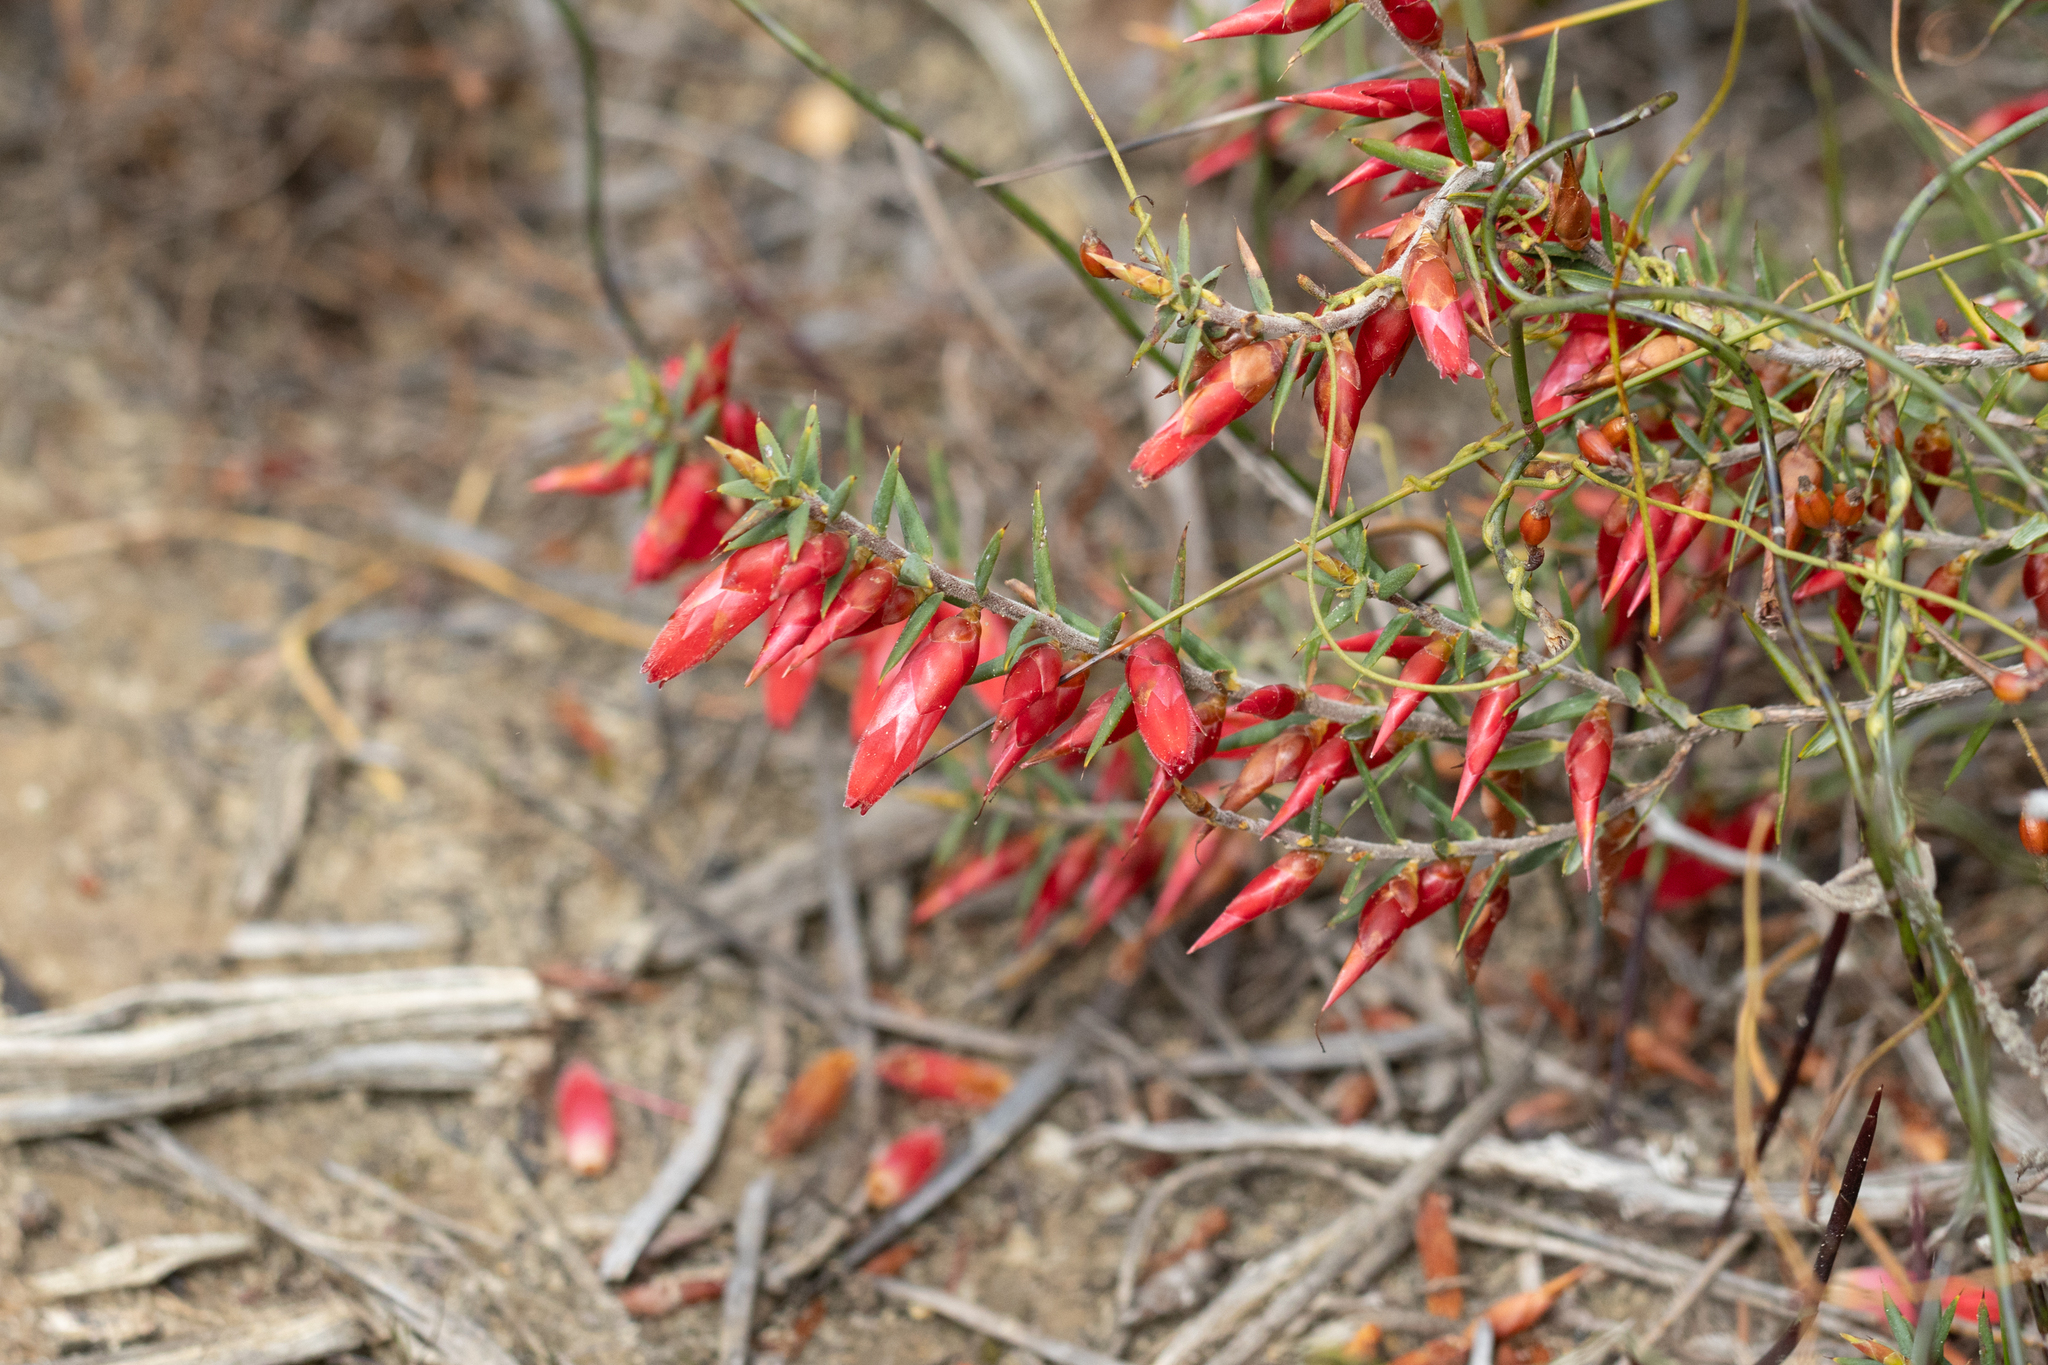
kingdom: Plantae
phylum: Tracheophyta
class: Magnoliopsida
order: Ericales
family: Ericaceae
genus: Stenanthera
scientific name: Stenanthera conostephioides
